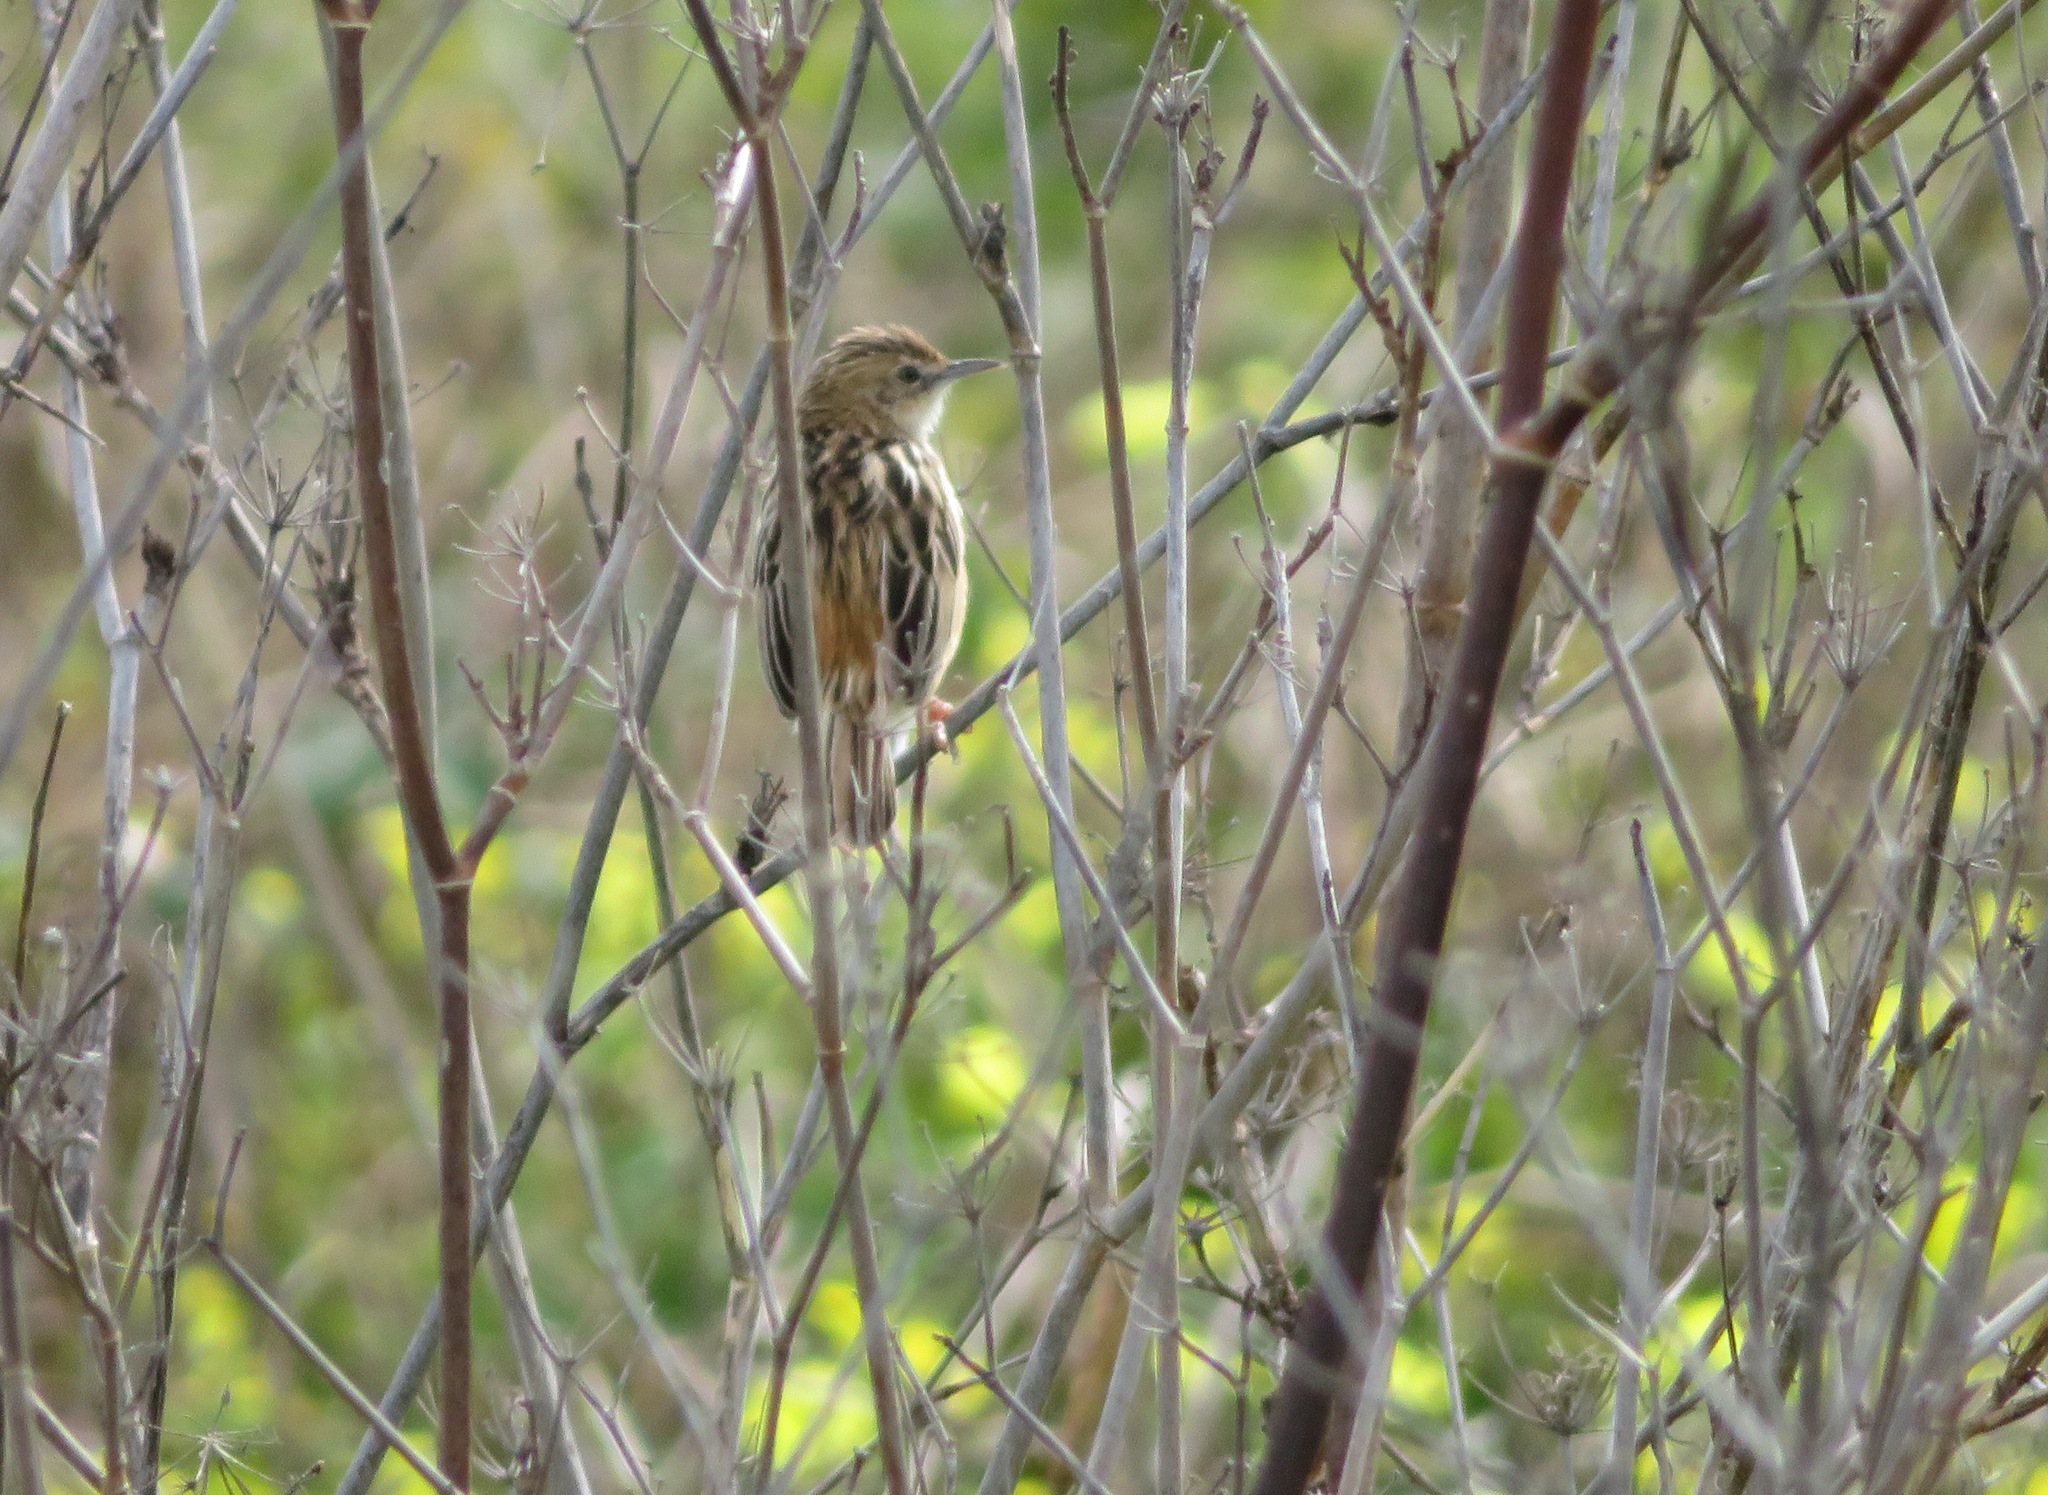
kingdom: Animalia
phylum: Chordata
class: Aves
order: Passeriformes
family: Cisticolidae
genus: Cisticola
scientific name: Cisticola juncidis
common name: Zitting cisticola
